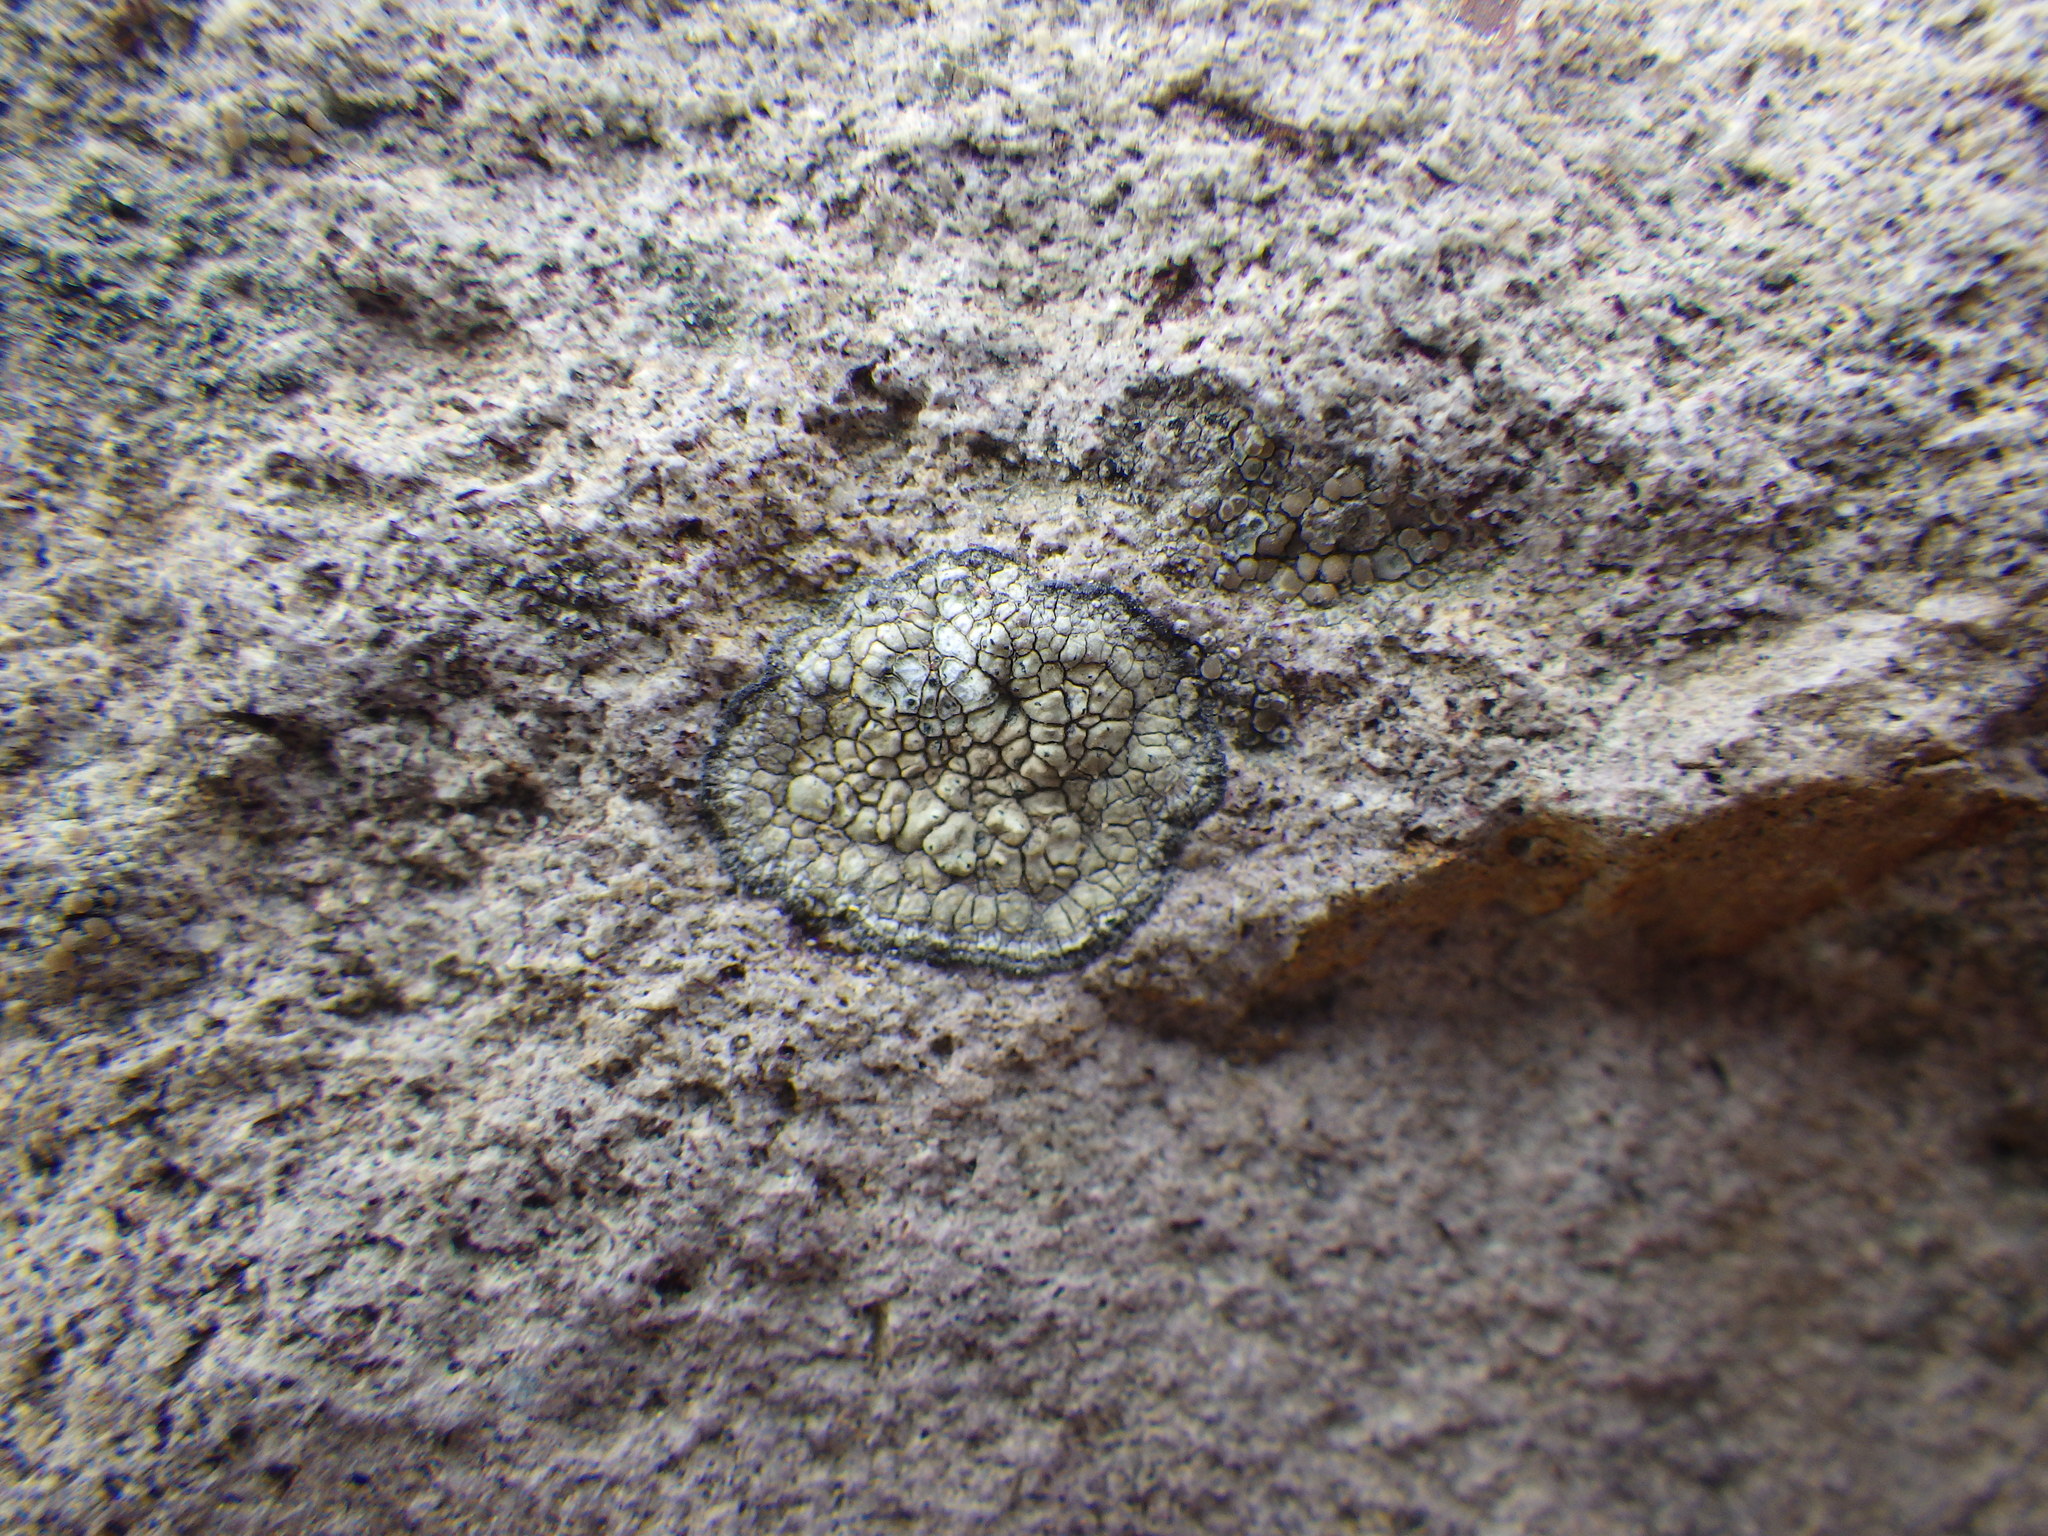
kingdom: Fungi
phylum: Ascomycota
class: Lecanoromycetes
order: Pertusariales
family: Megasporaceae
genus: Aspicilia
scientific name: Aspicilia knudsenii
